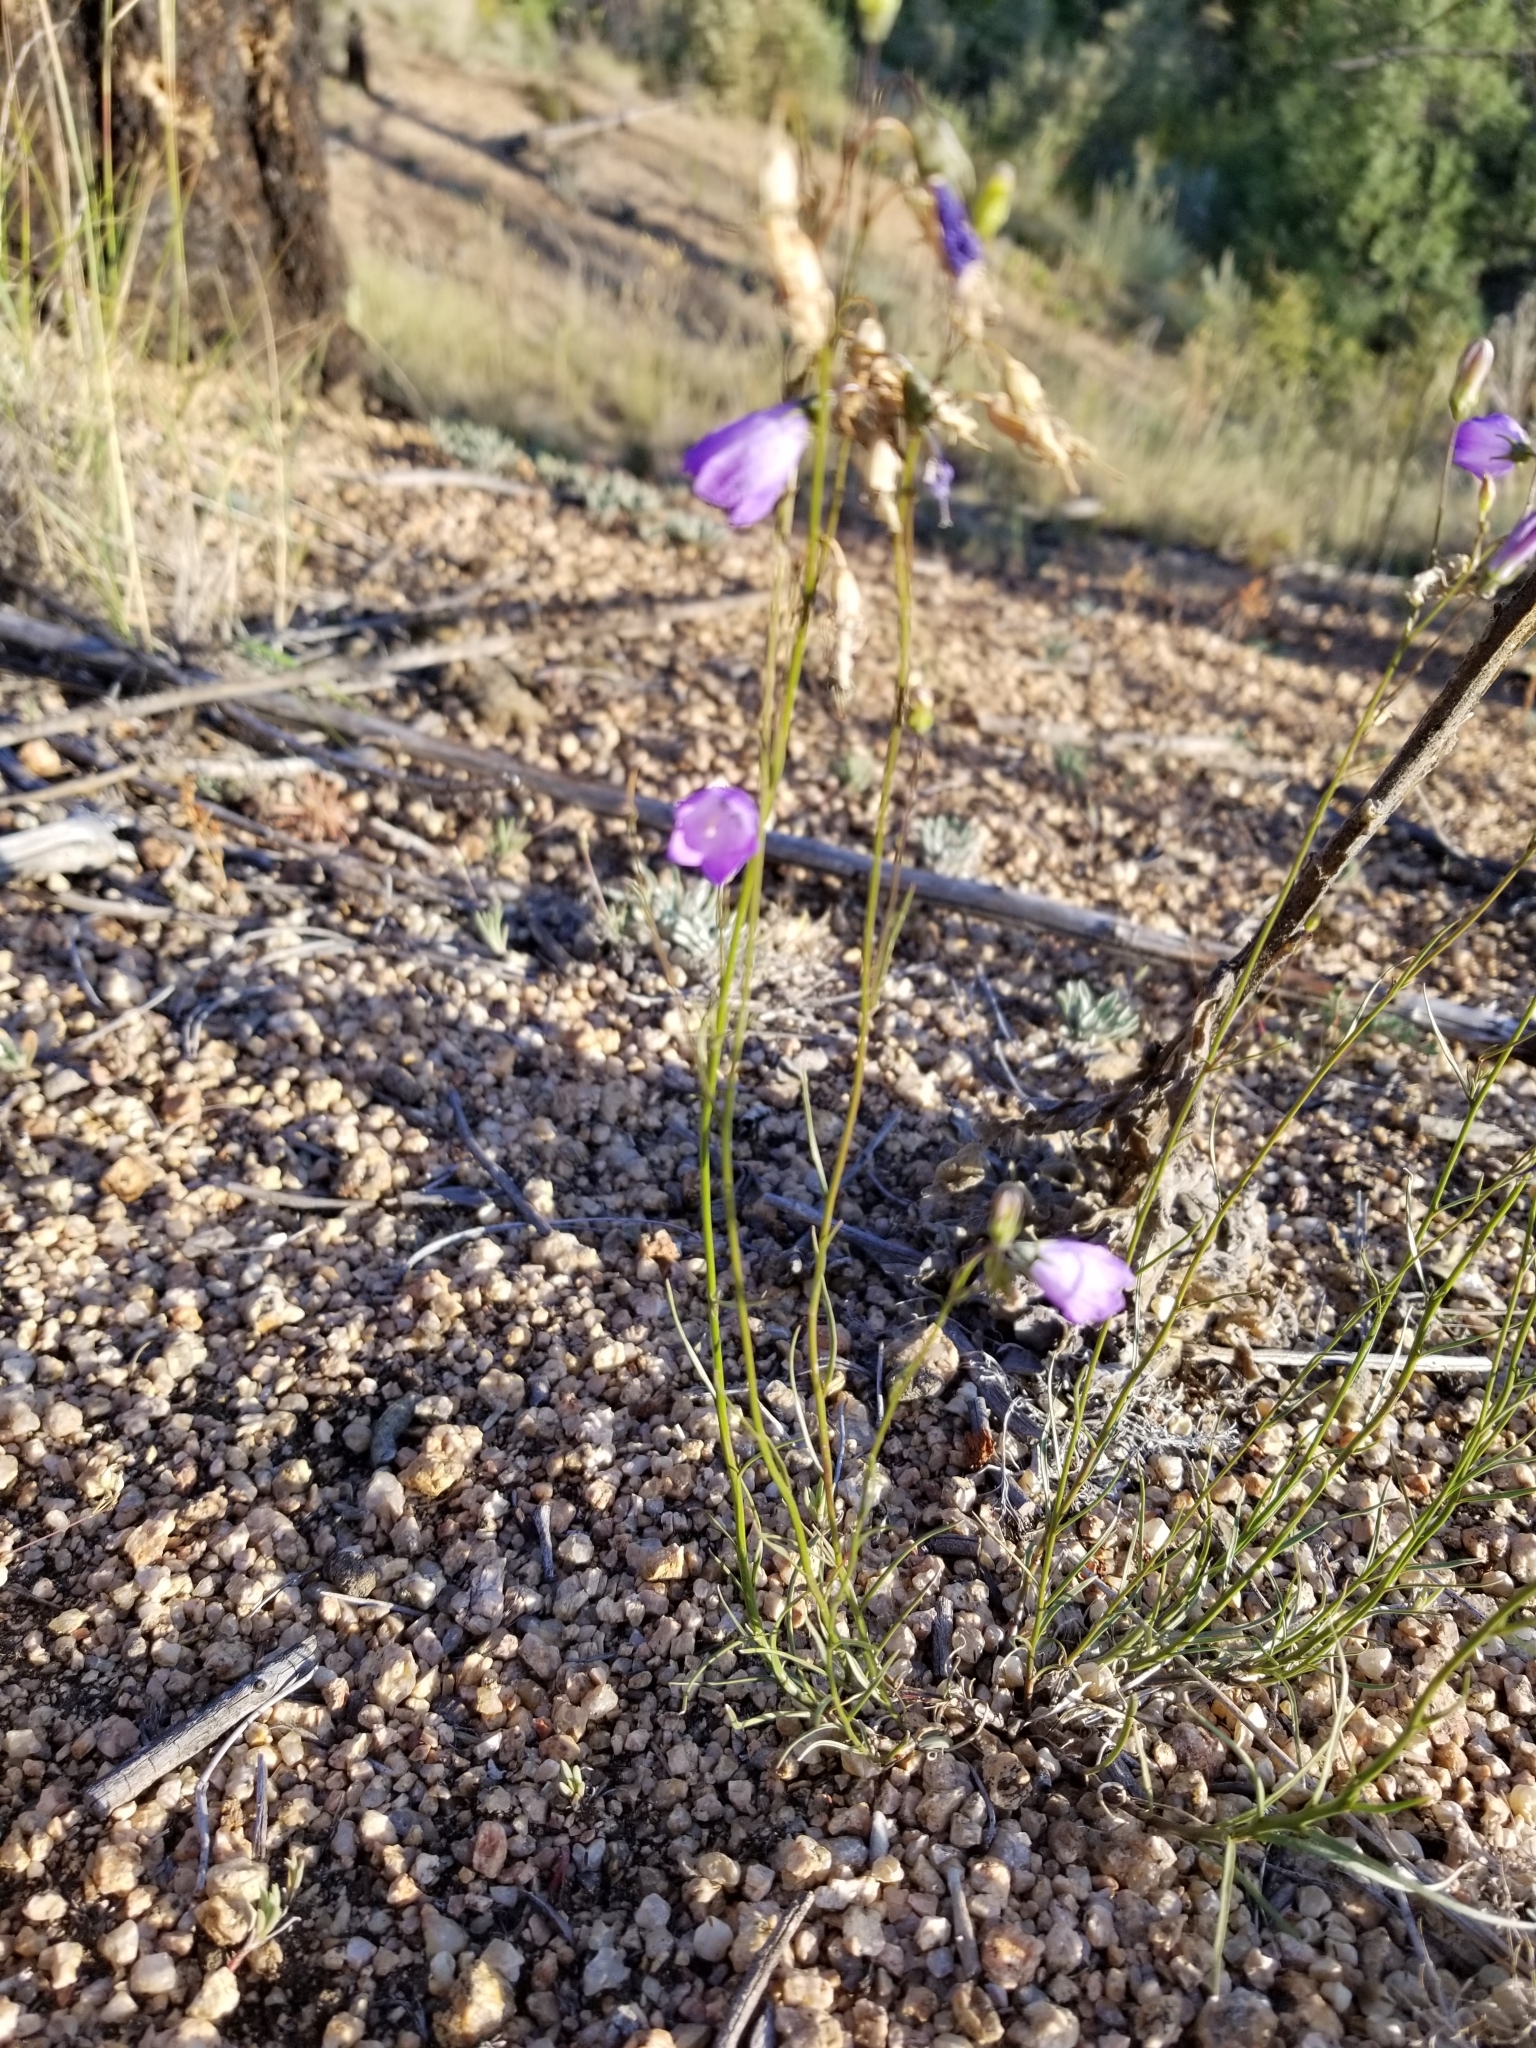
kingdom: Plantae
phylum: Tracheophyta
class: Magnoliopsida
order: Asterales
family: Campanulaceae
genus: Campanula
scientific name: Campanula petiolata
